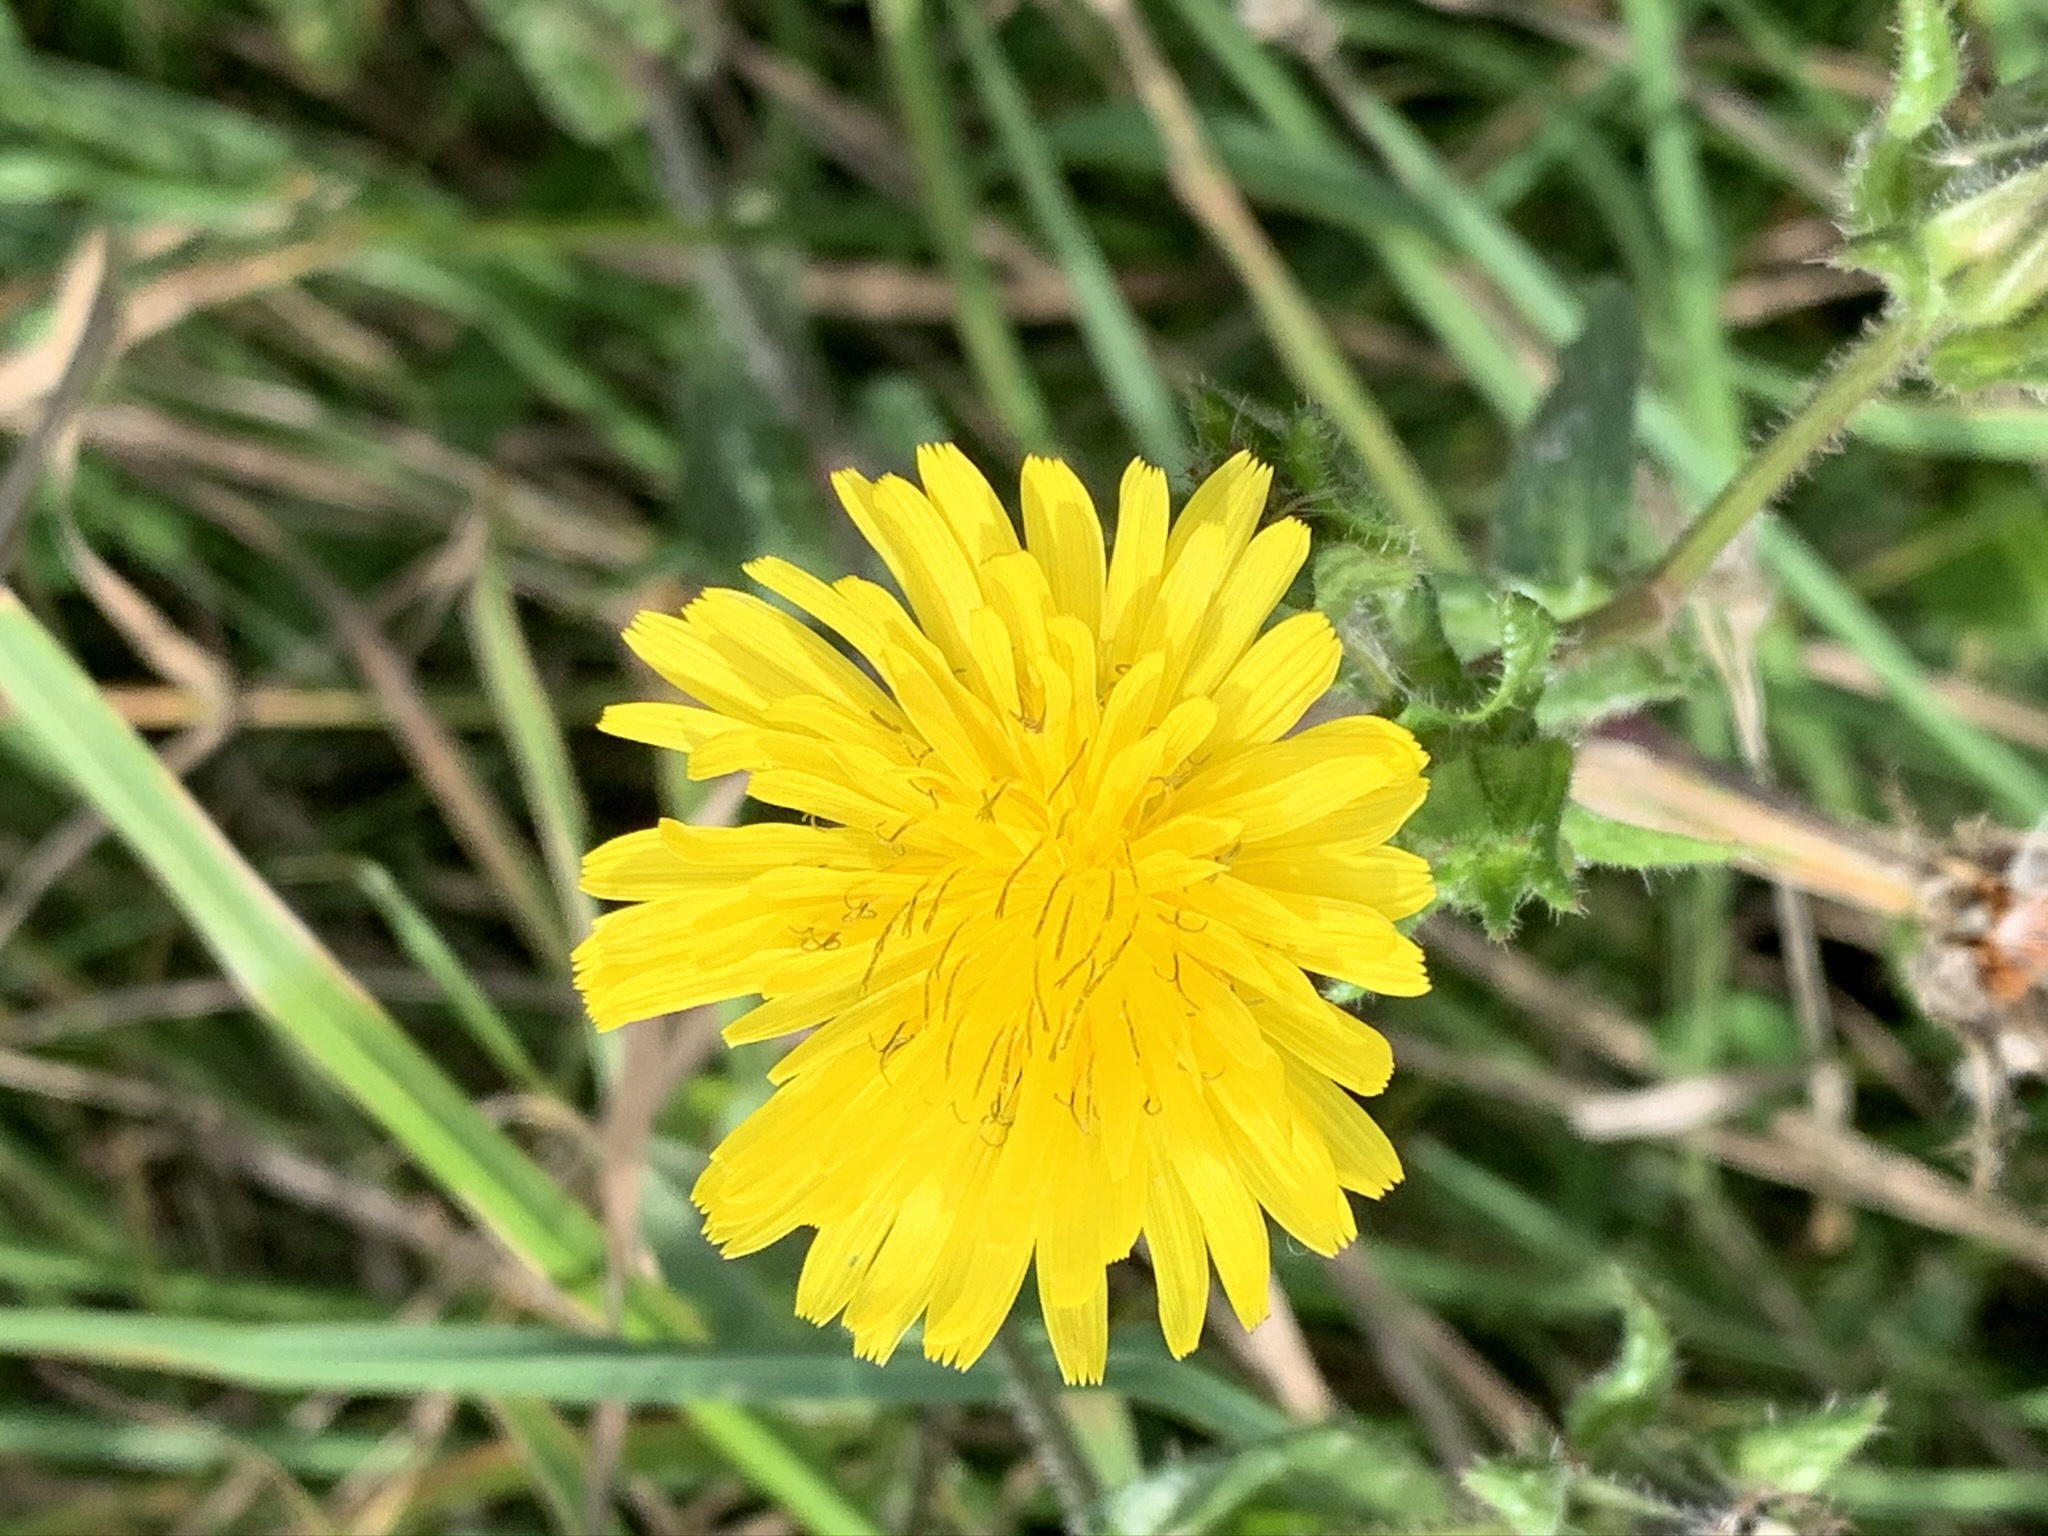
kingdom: Plantae
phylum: Tracheophyta
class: Magnoliopsida
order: Asterales
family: Asteraceae
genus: Helminthotheca
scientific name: Helminthotheca echioides
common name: Ox-tongue
